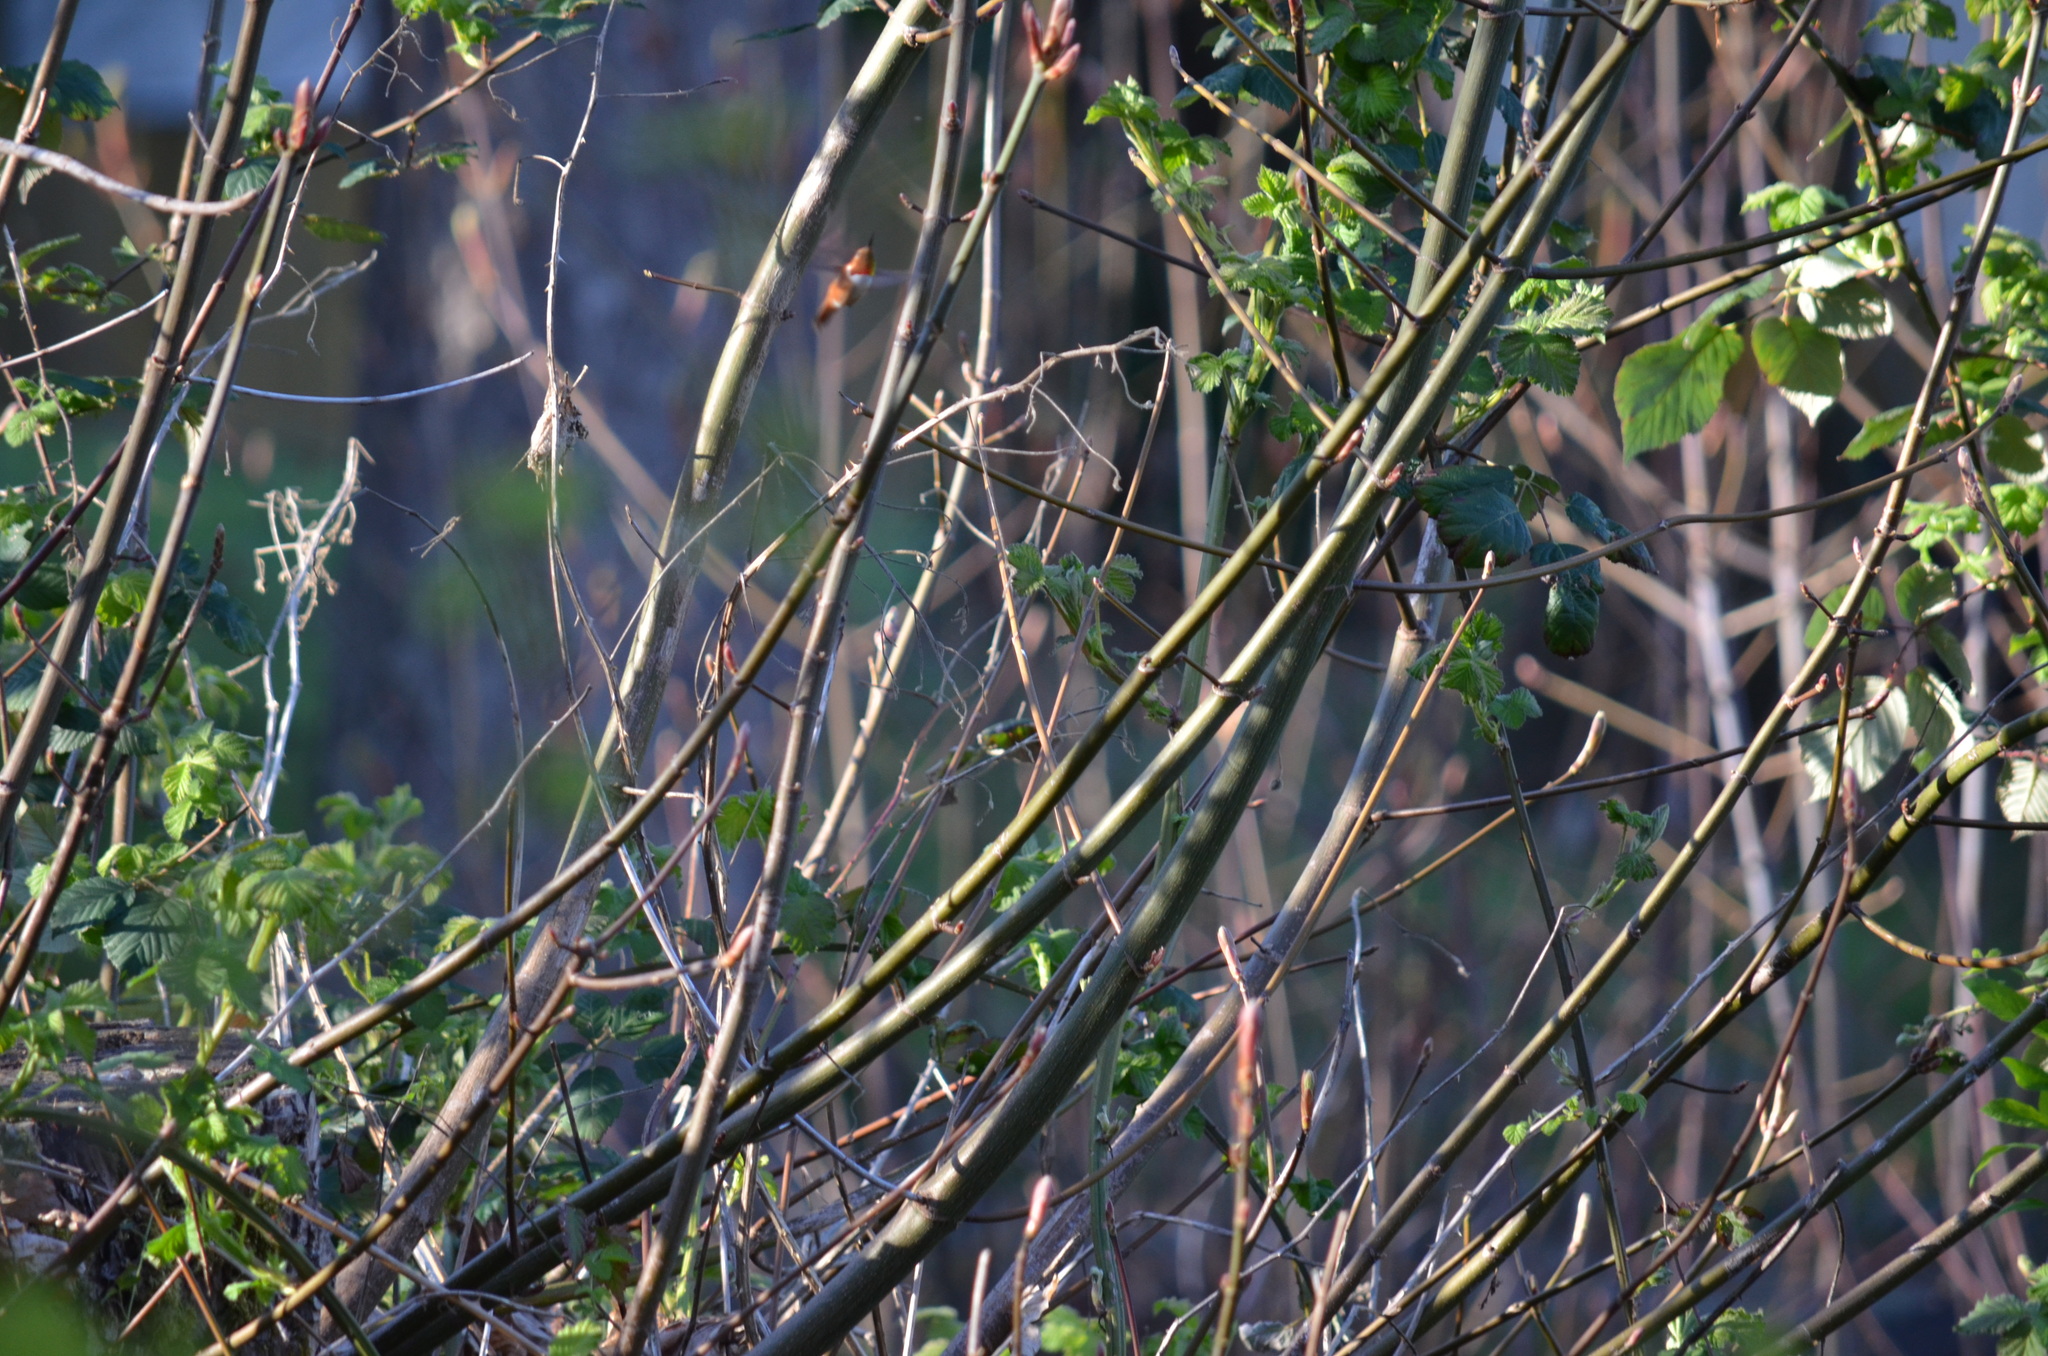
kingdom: Animalia
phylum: Chordata
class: Aves
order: Apodiformes
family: Trochilidae
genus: Selasphorus
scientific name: Selasphorus rufus
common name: Rufous hummingbird
